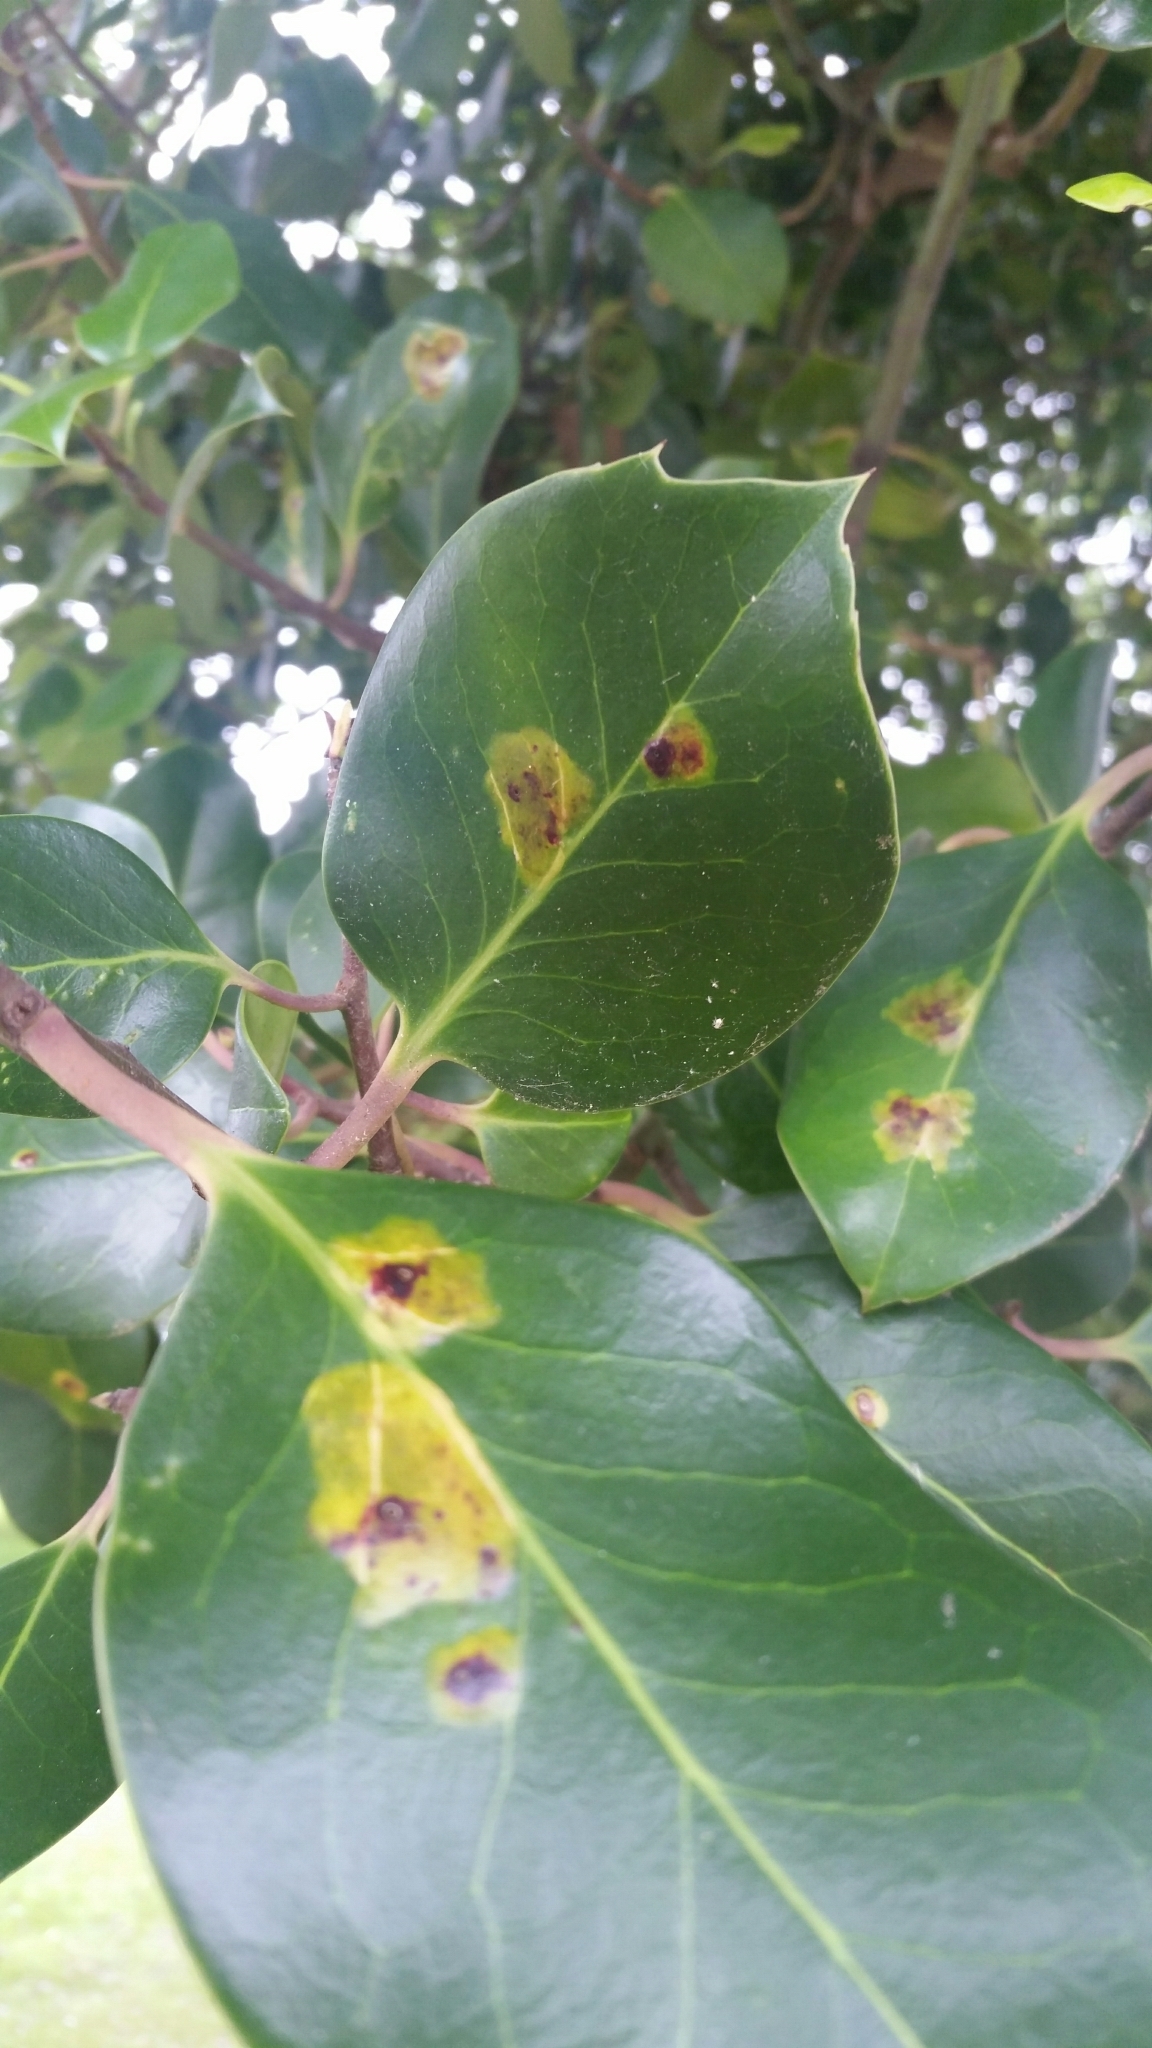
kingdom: Animalia
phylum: Arthropoda
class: Insecta
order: Diptera
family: Agromyzidae
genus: Phytomyza
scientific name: Phytomyza ilicis
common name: Holly leafminer
